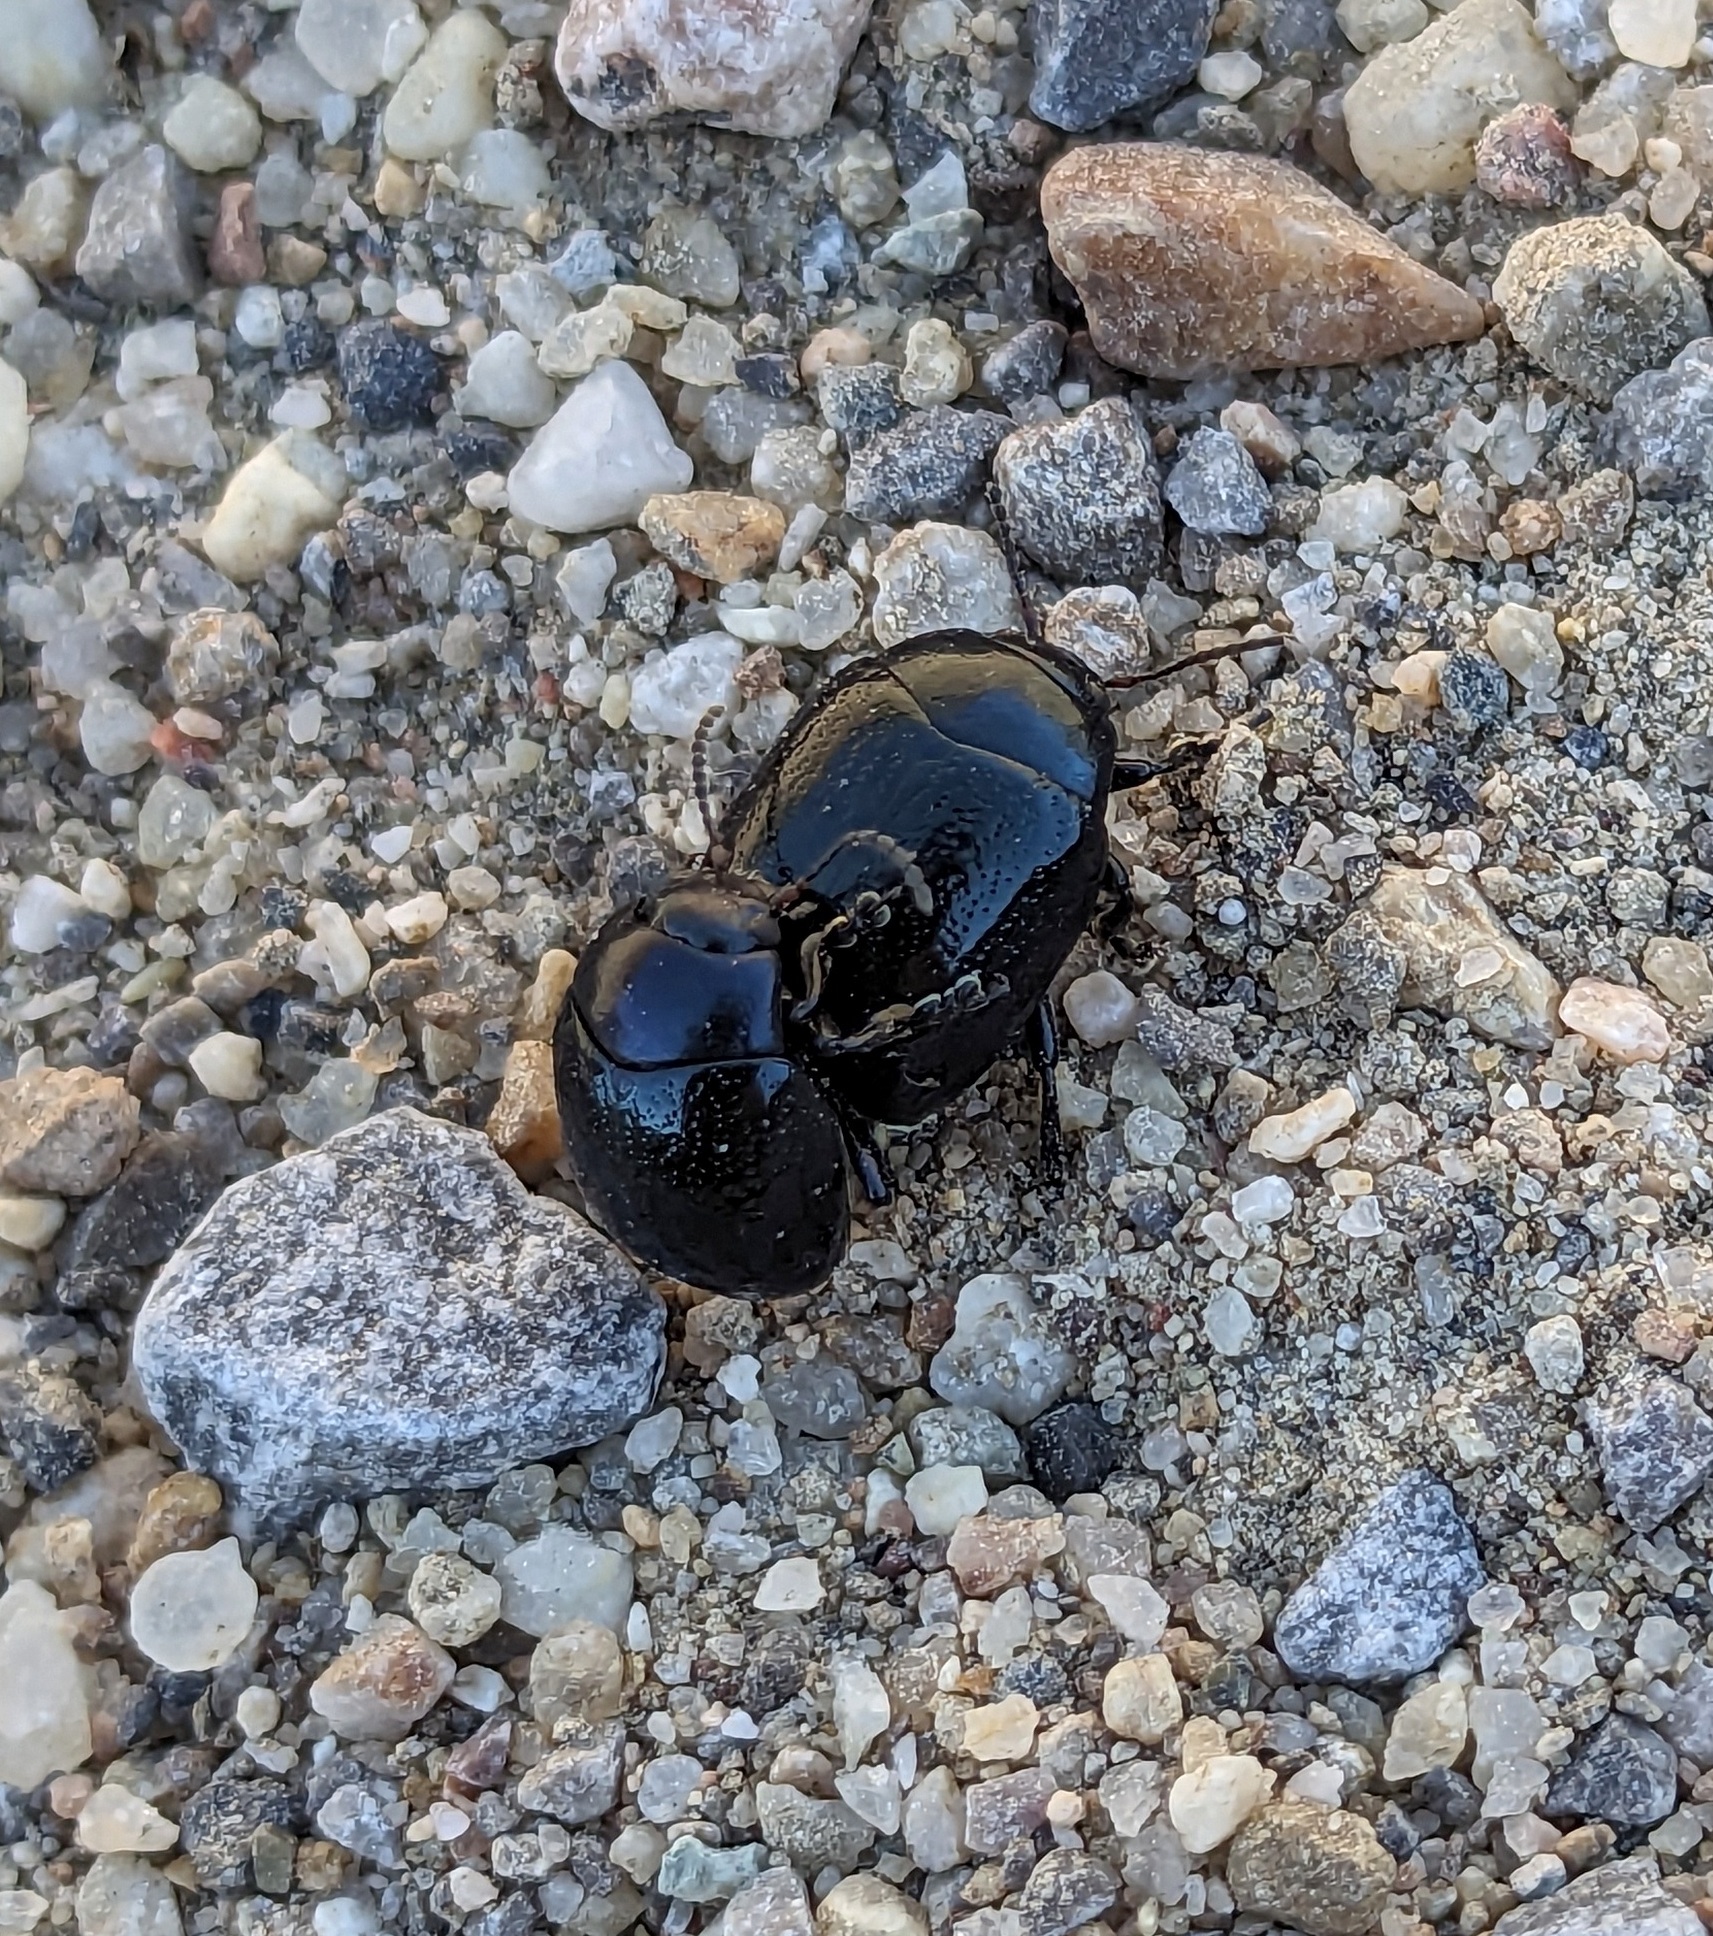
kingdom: Animalia
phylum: Arthropoda
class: Insecta
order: Coleoptera
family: Chrysomelidae
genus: Chrysolina
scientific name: Chrysolina haemoptera
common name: Plantain leaf beetle
